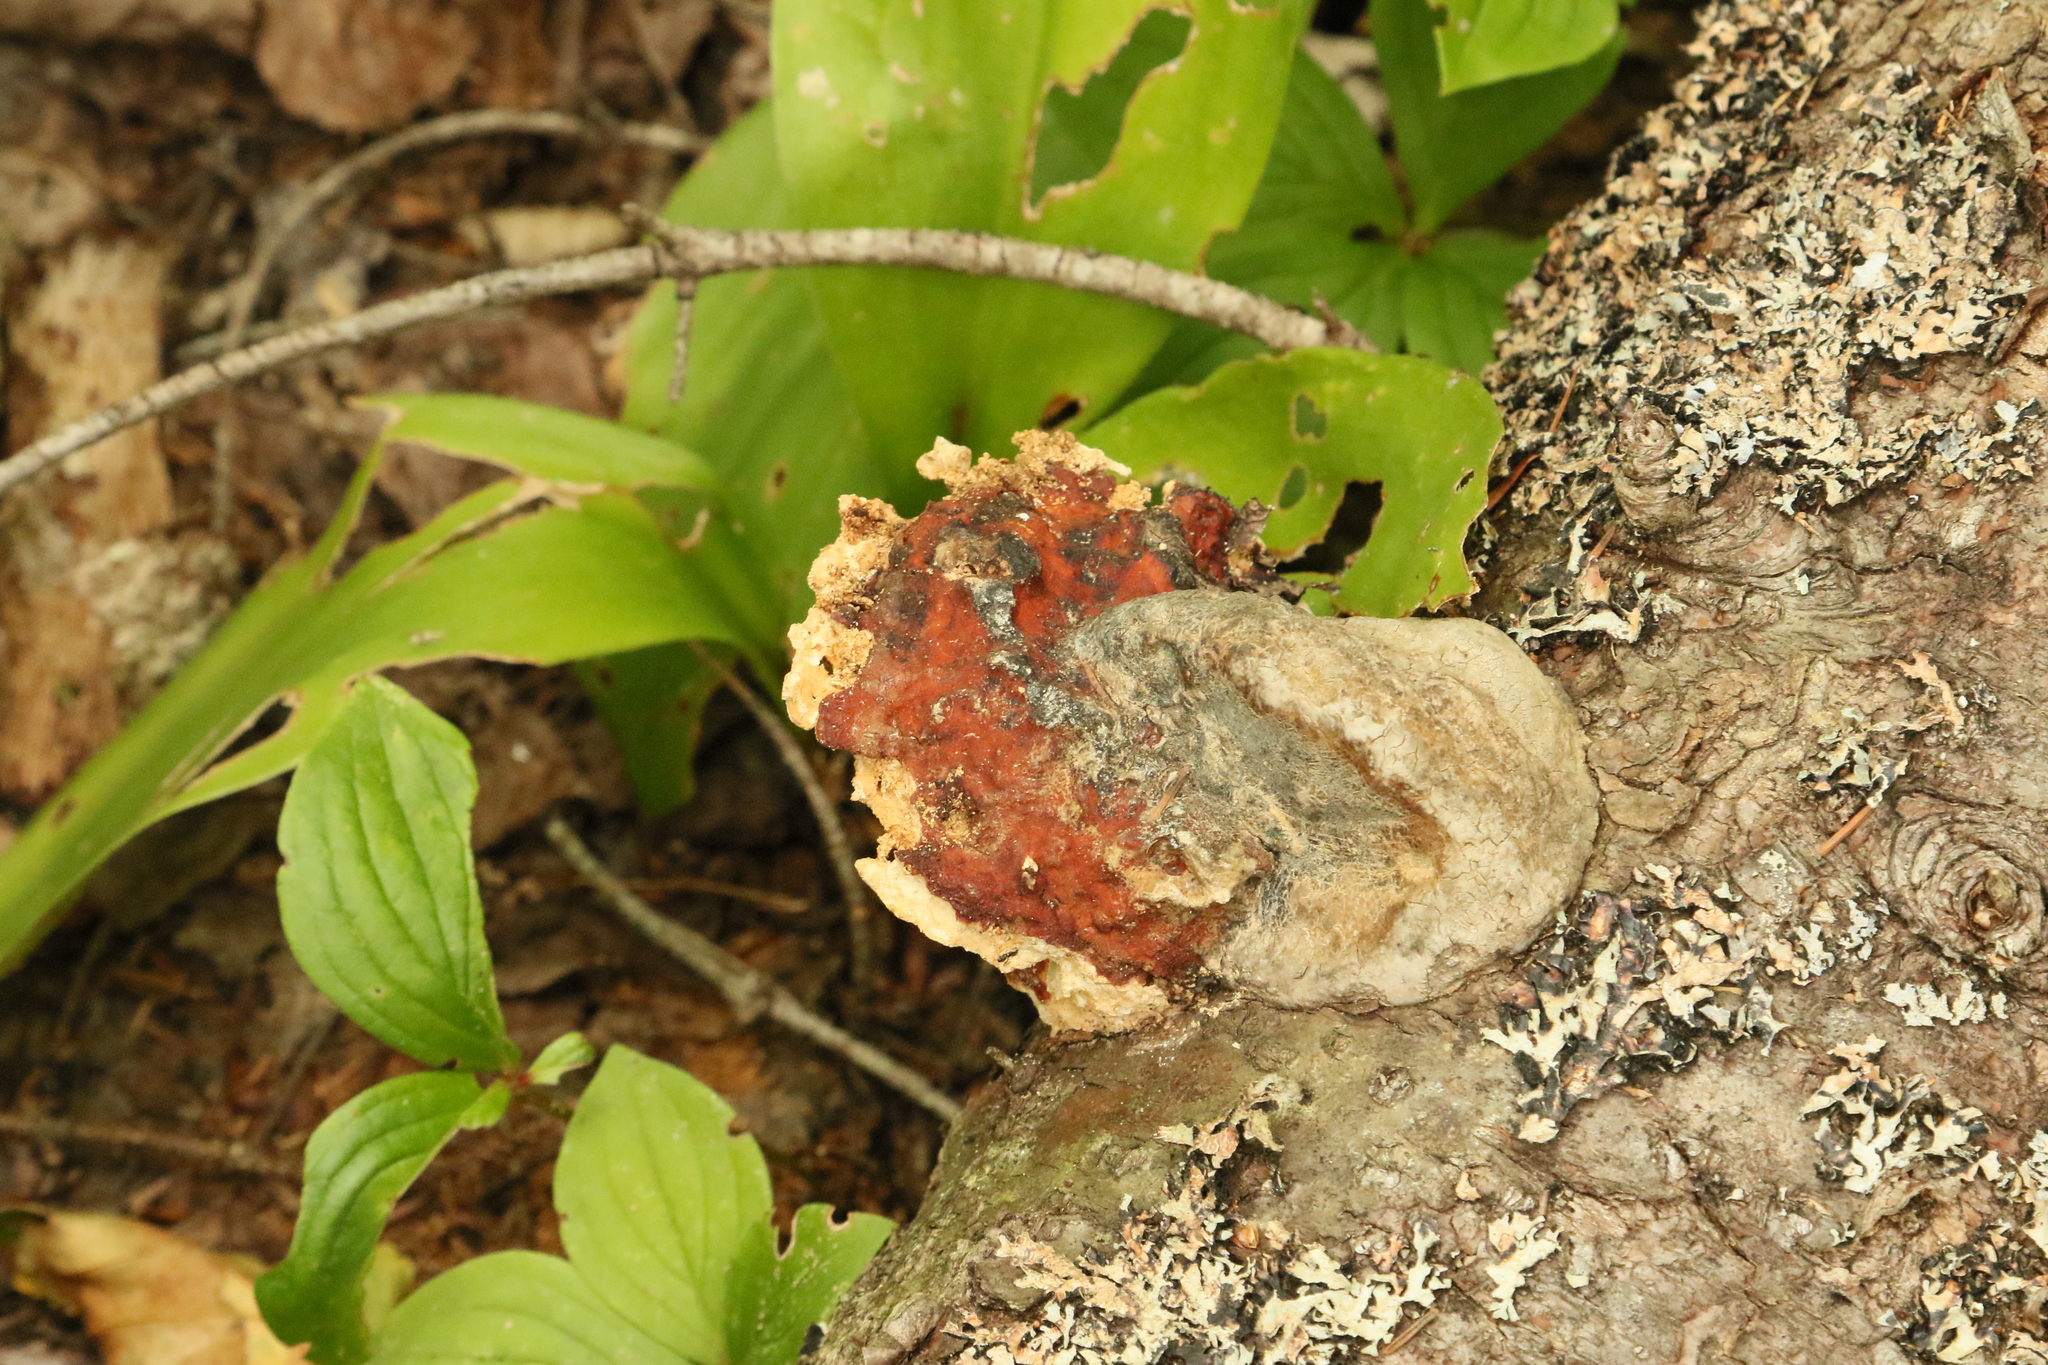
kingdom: Fungi
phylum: Basidiomycota
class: Agaricomycetes
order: Polyporales
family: Fomitopsidaceae
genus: Fomitopsis
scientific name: Fomitopsis mounceae
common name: Northern red belt
